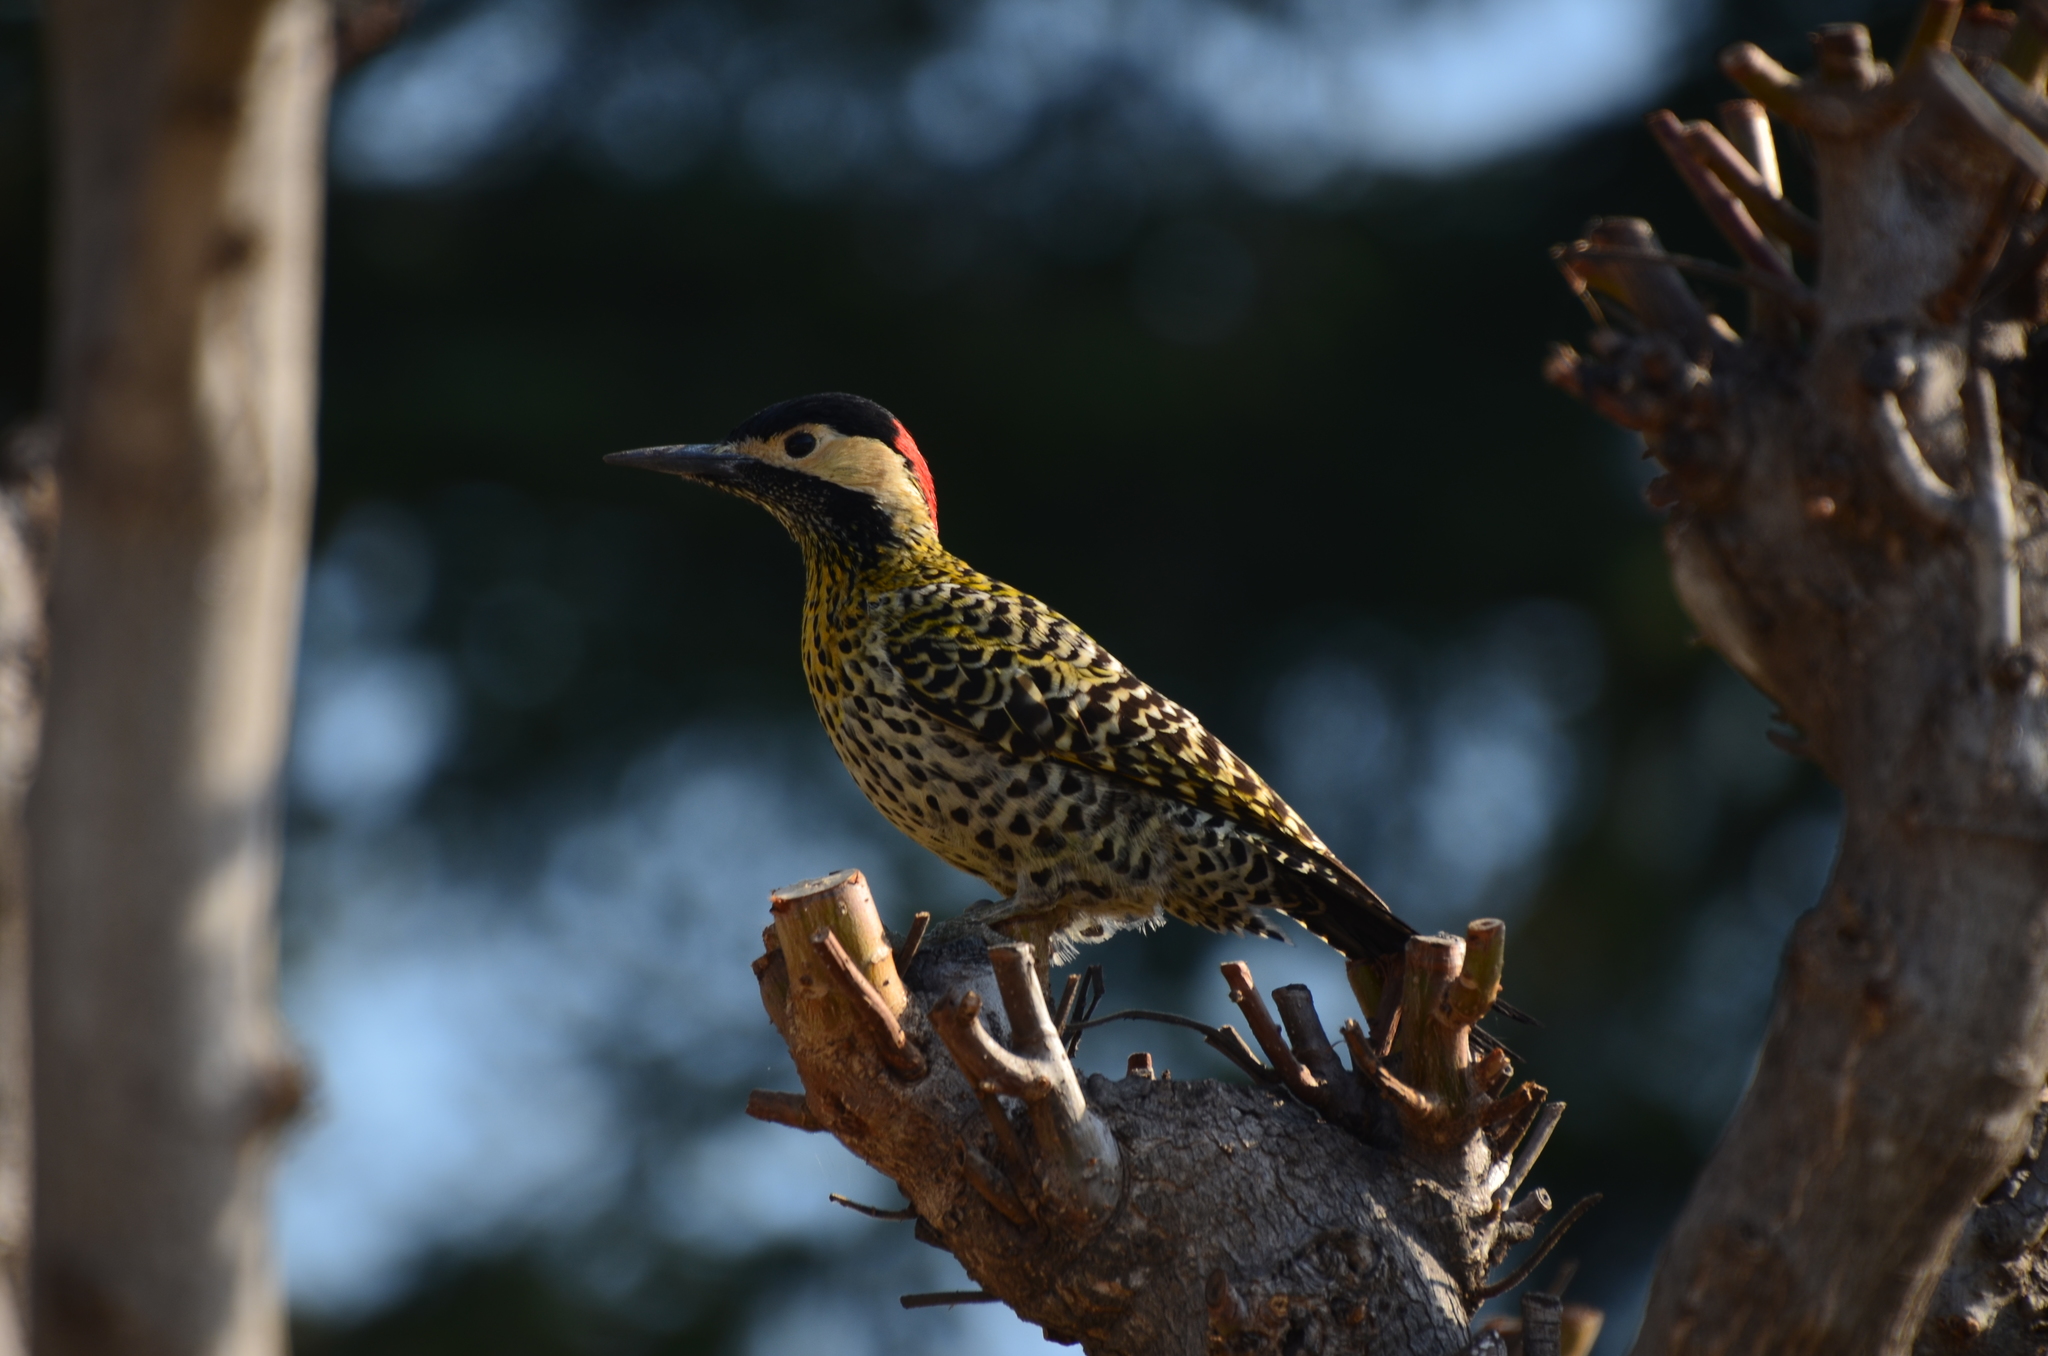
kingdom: Animalia
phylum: Chordata
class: Aves
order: Piciformes
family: Picidae
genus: Colaptes
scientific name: Colaptes melanochloros
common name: Green-barred woodpecker
